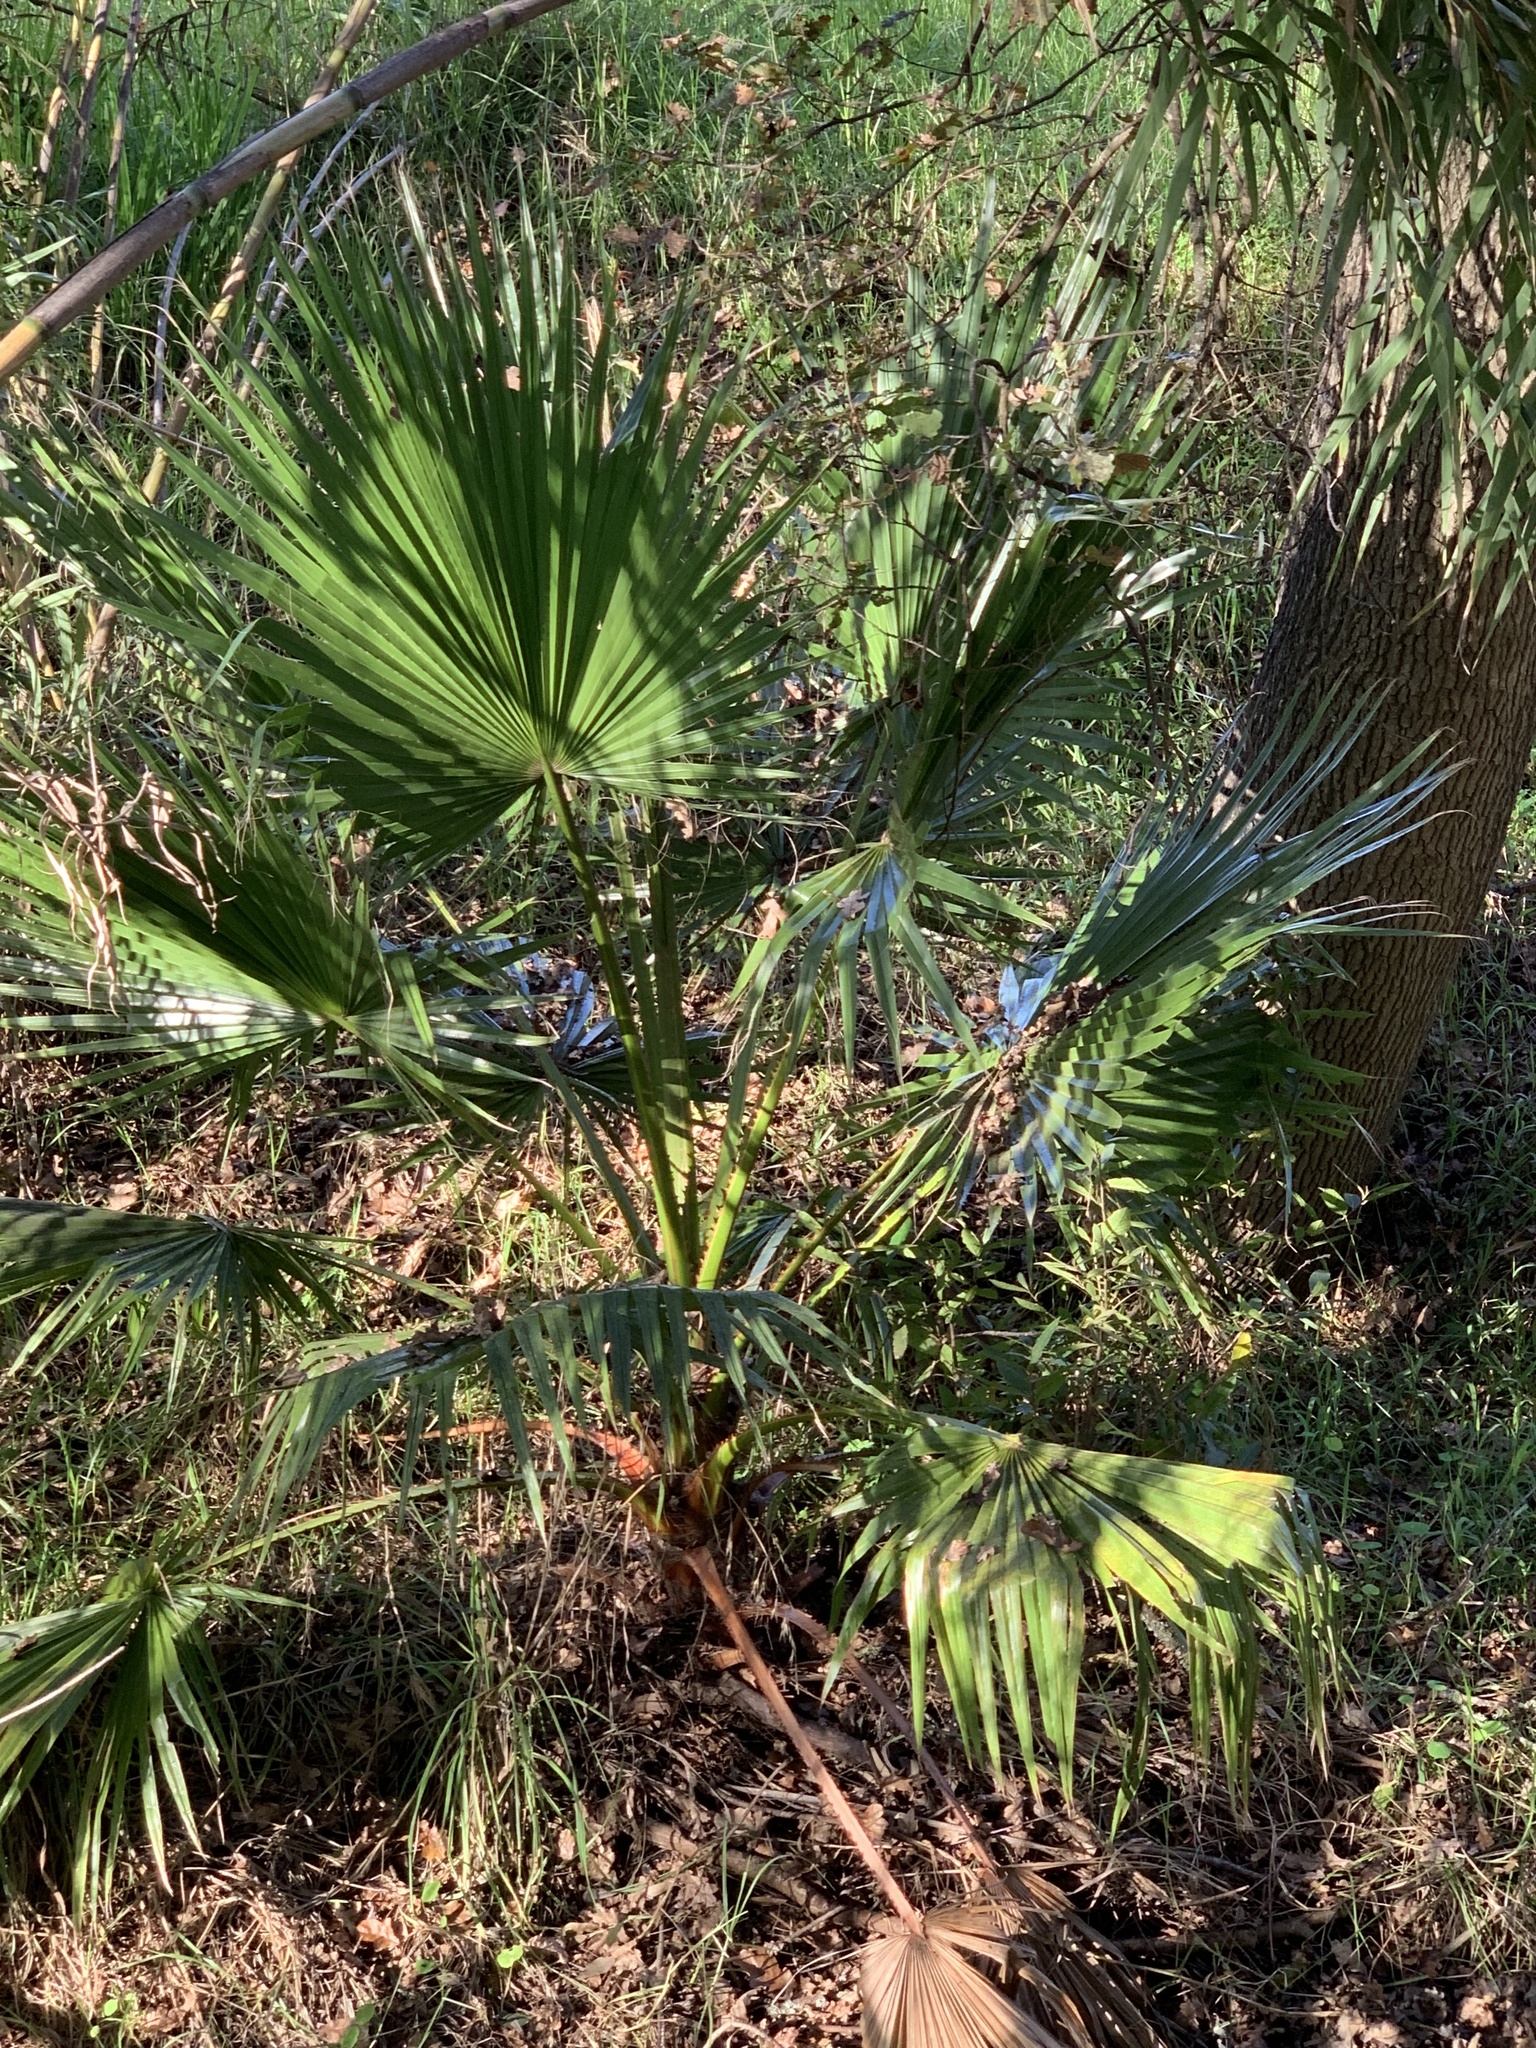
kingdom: Plantae
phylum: Tracheophyta
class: Liliopsida
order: Arecales
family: Arecaceae
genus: Washingtonia
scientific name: Washingtonia robusta
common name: Mexican fan palm
